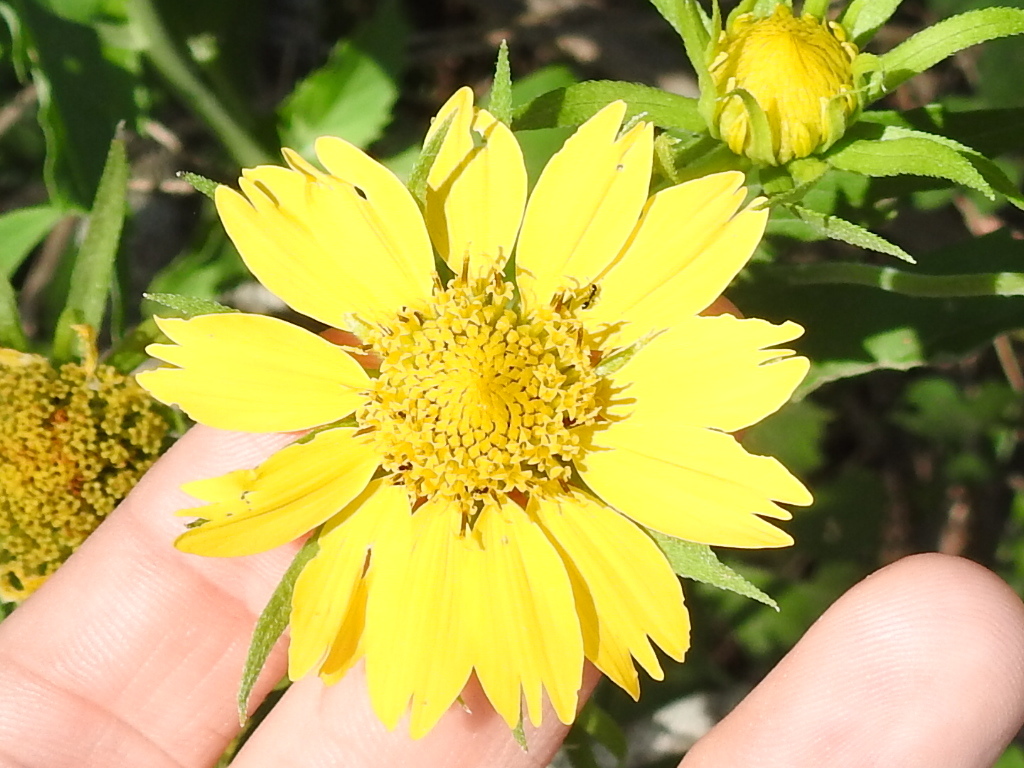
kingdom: Plantae
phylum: Tracheophyta
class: Magnoliopsida
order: Asterales
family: Asteraceae
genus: Verbesina
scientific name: Verbesina encelioides
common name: Golden crownbeard
